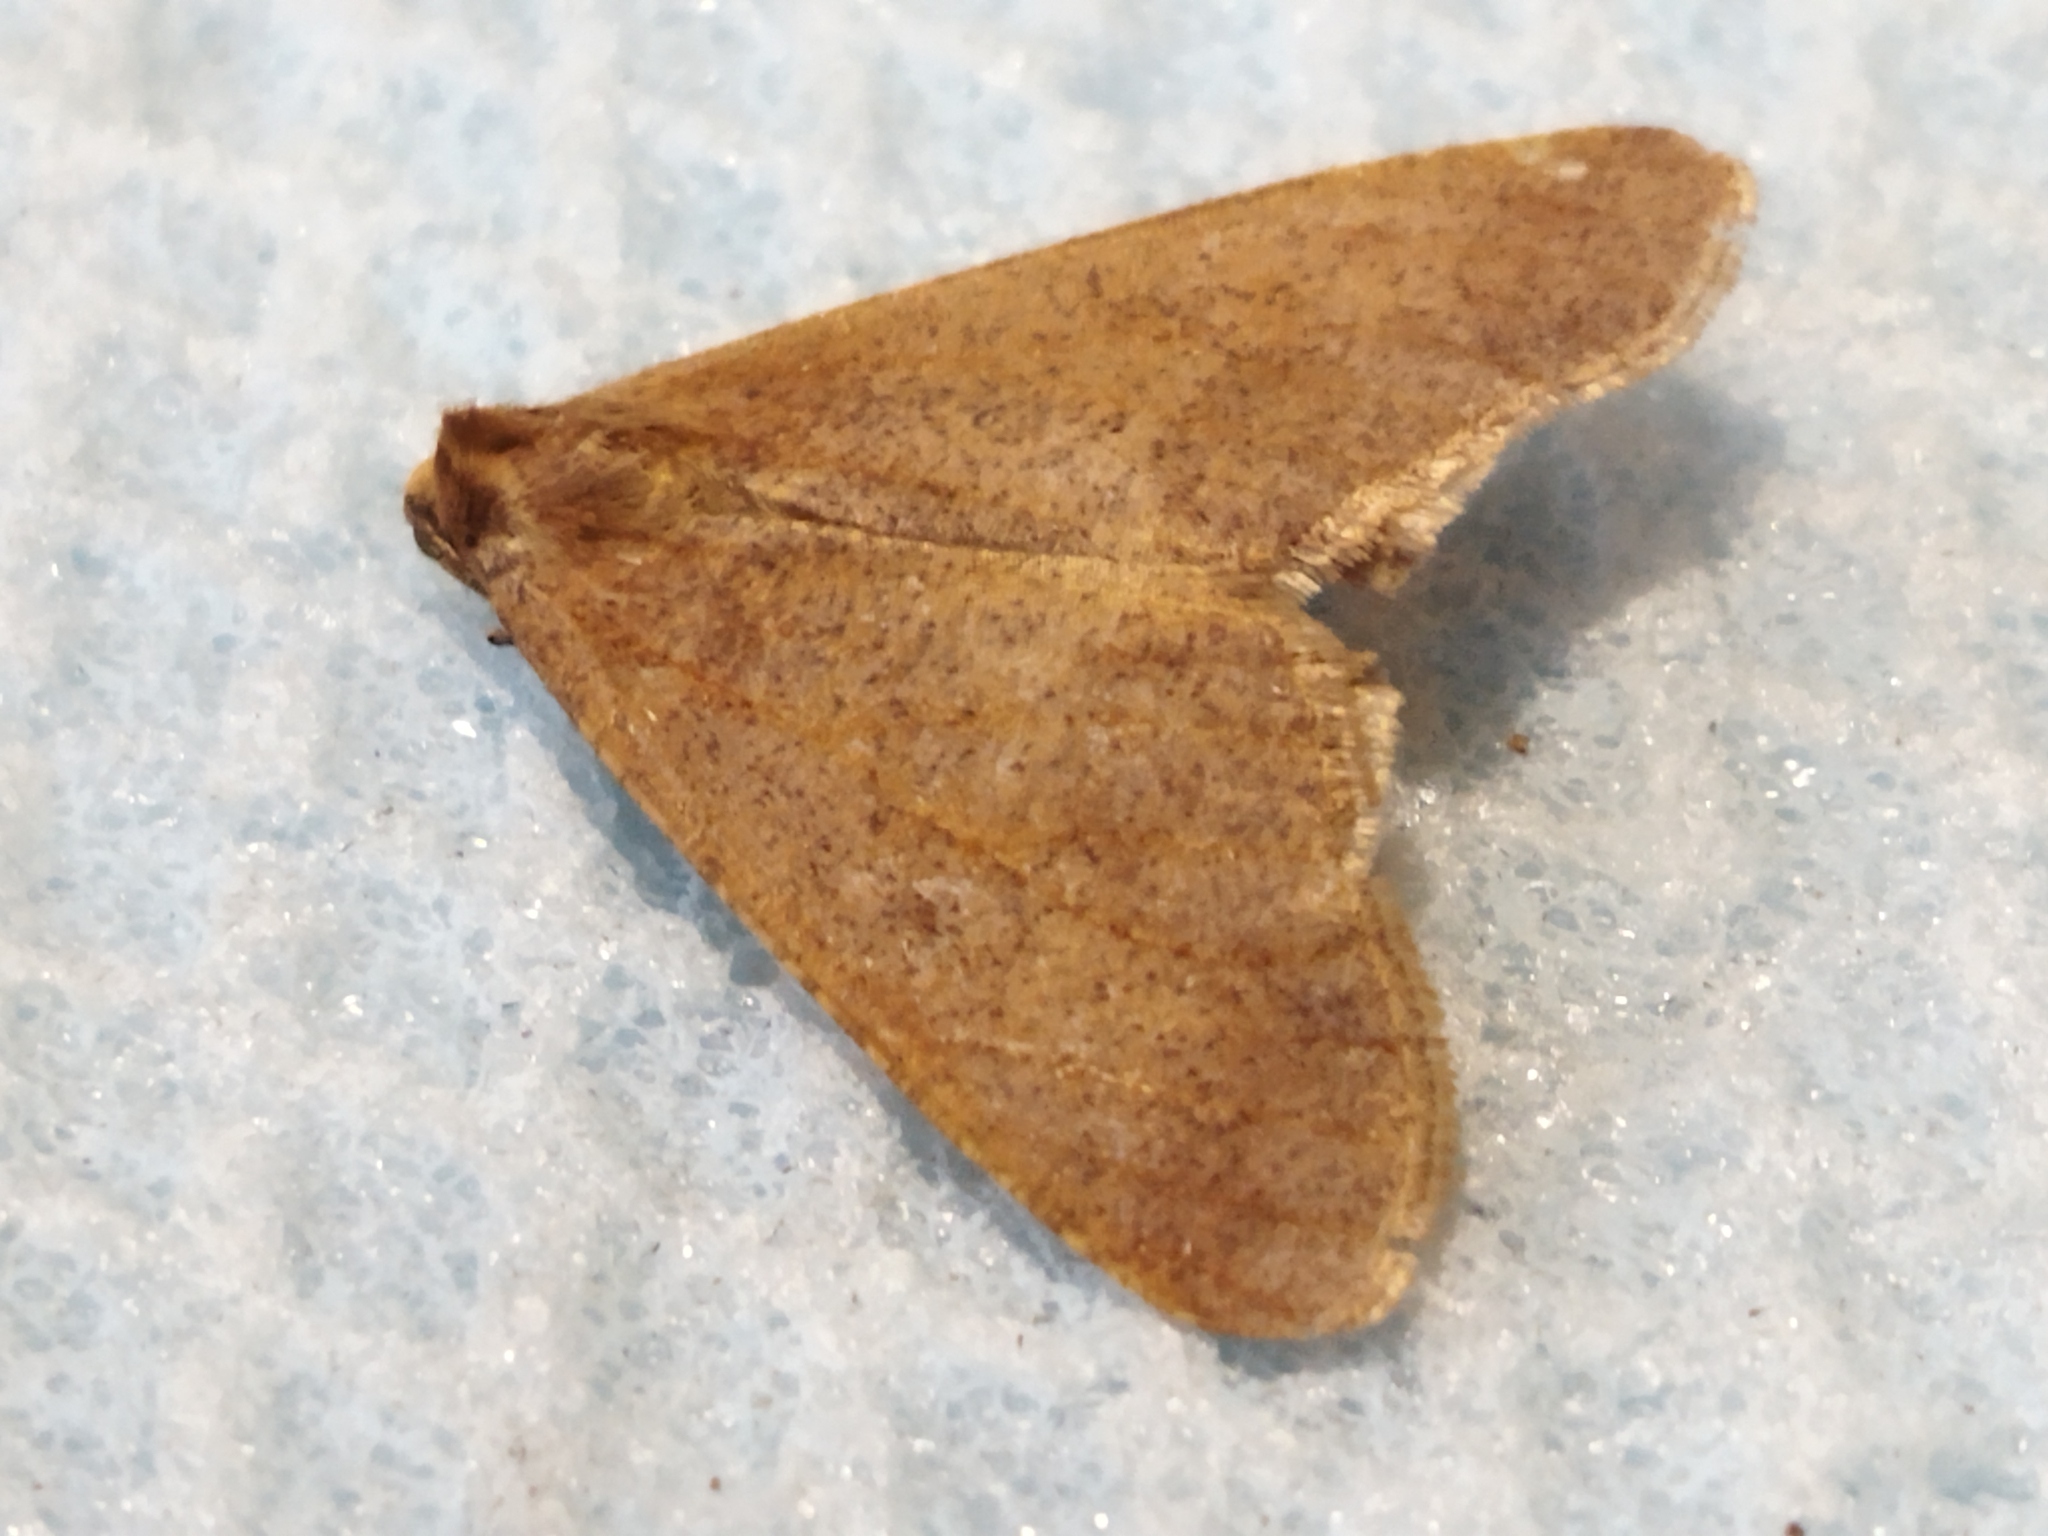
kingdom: Animalia
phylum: Arthropoda
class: Insecta
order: Lepidoptera
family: Geometridae
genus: Erannis
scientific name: Erannis defoliaria
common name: Mottled umber
